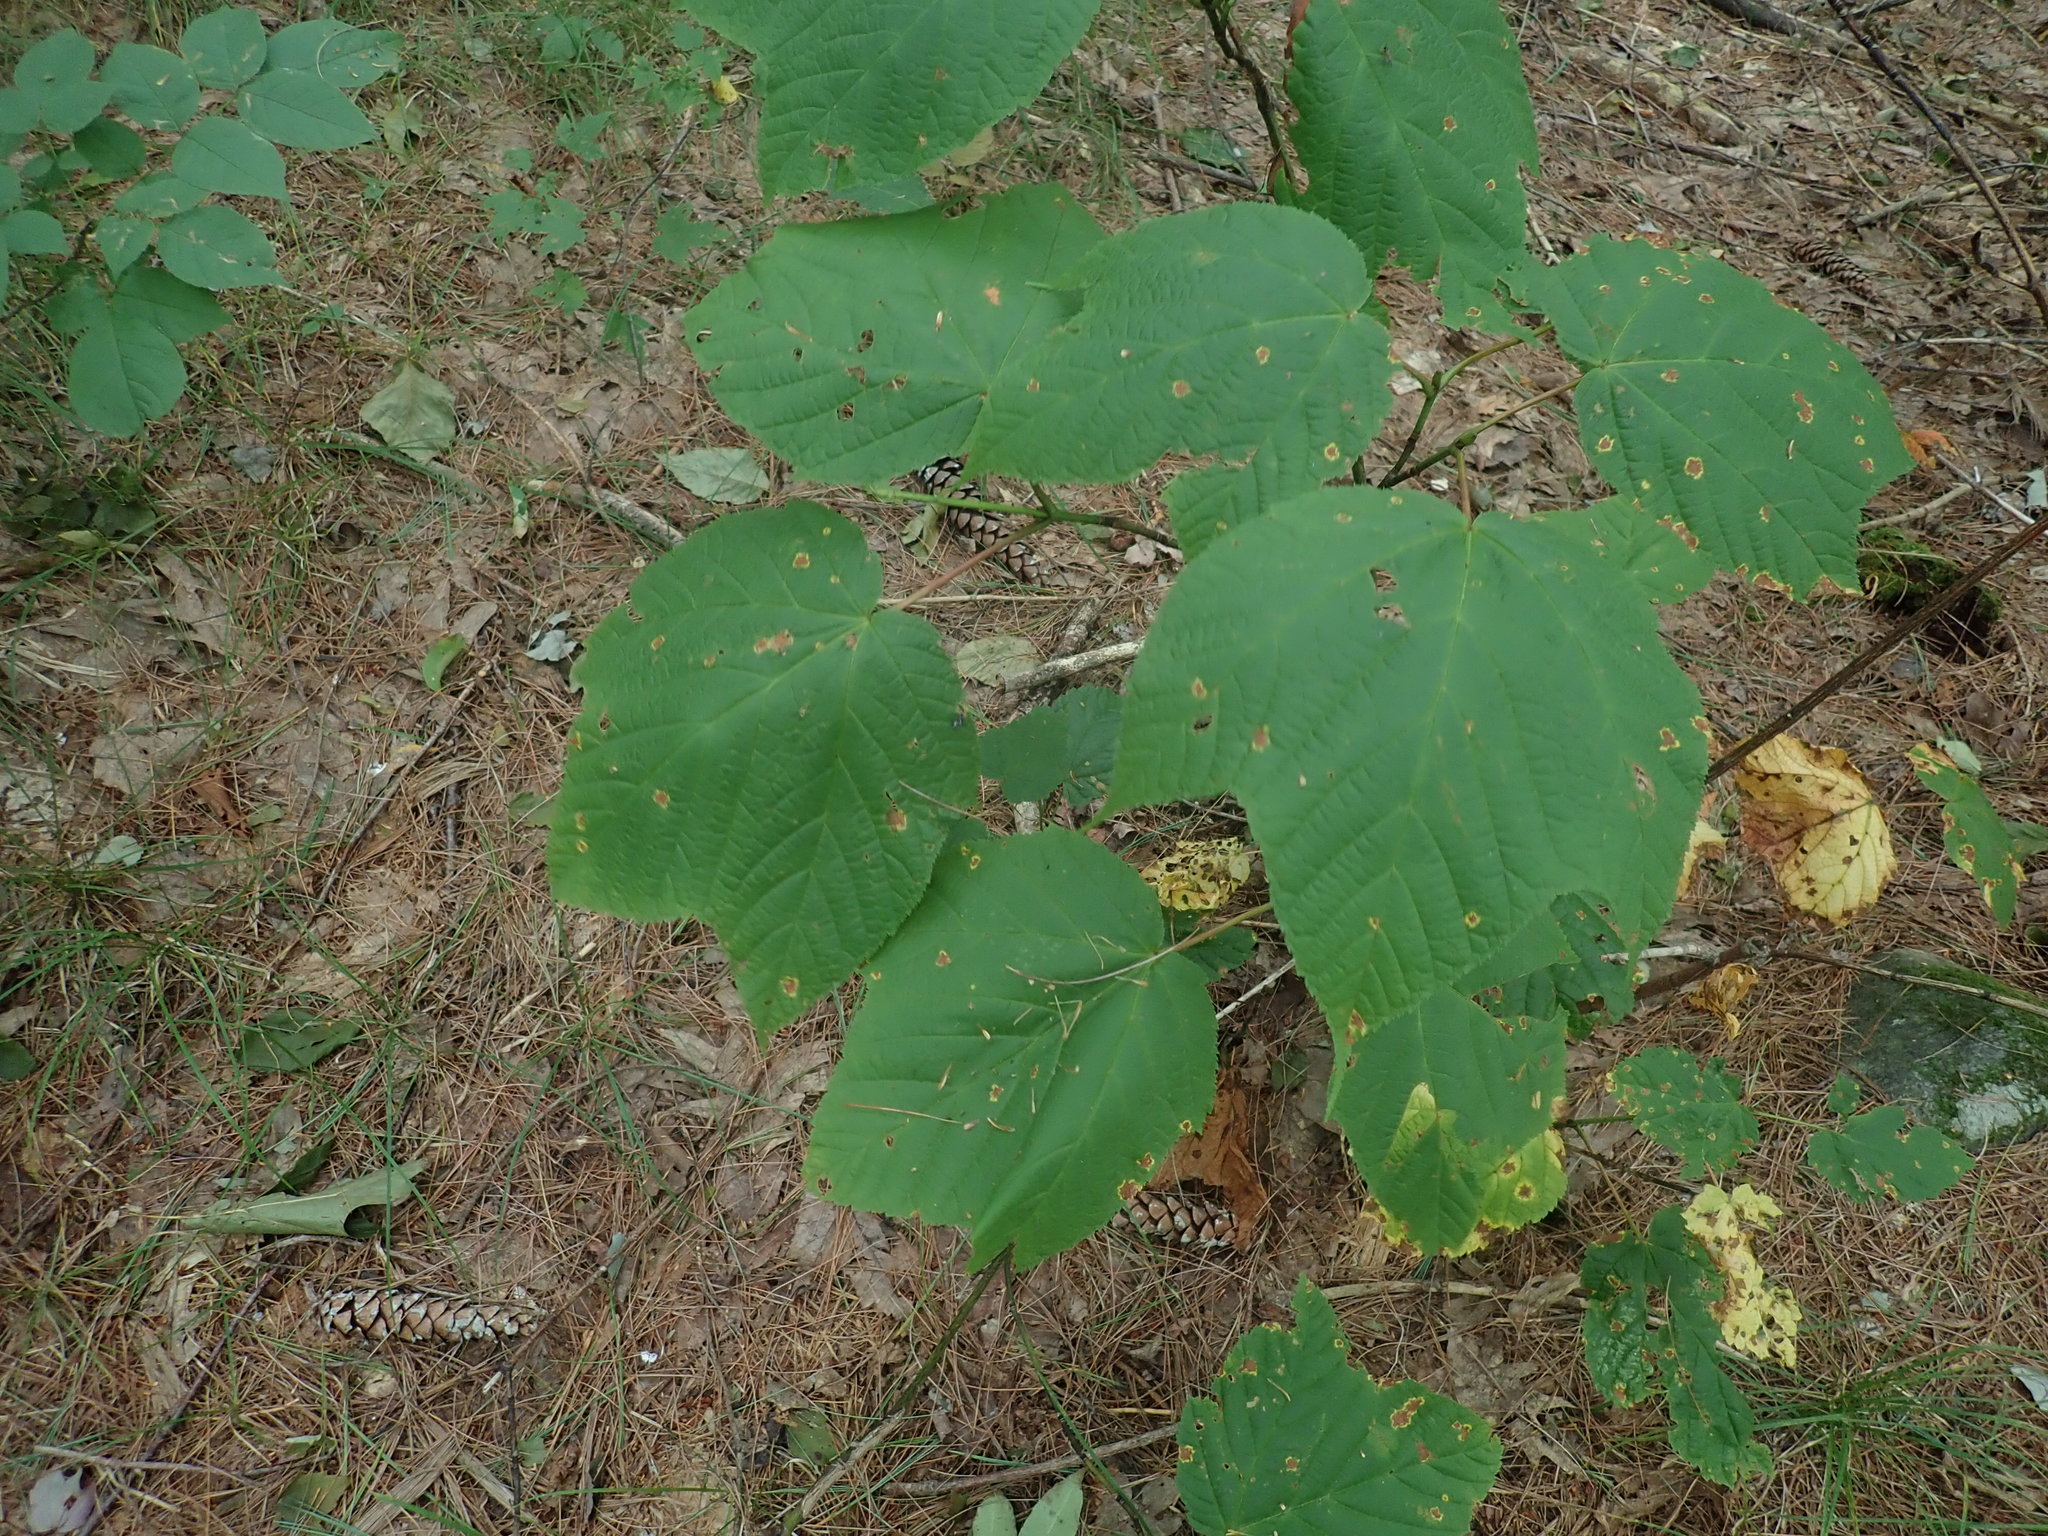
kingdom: Plantae
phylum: Tracheophyta
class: Magnoliopsida
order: Sapindales
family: Sapindaceae
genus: Acer
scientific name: Acer pensylvanicum
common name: Moosewood
